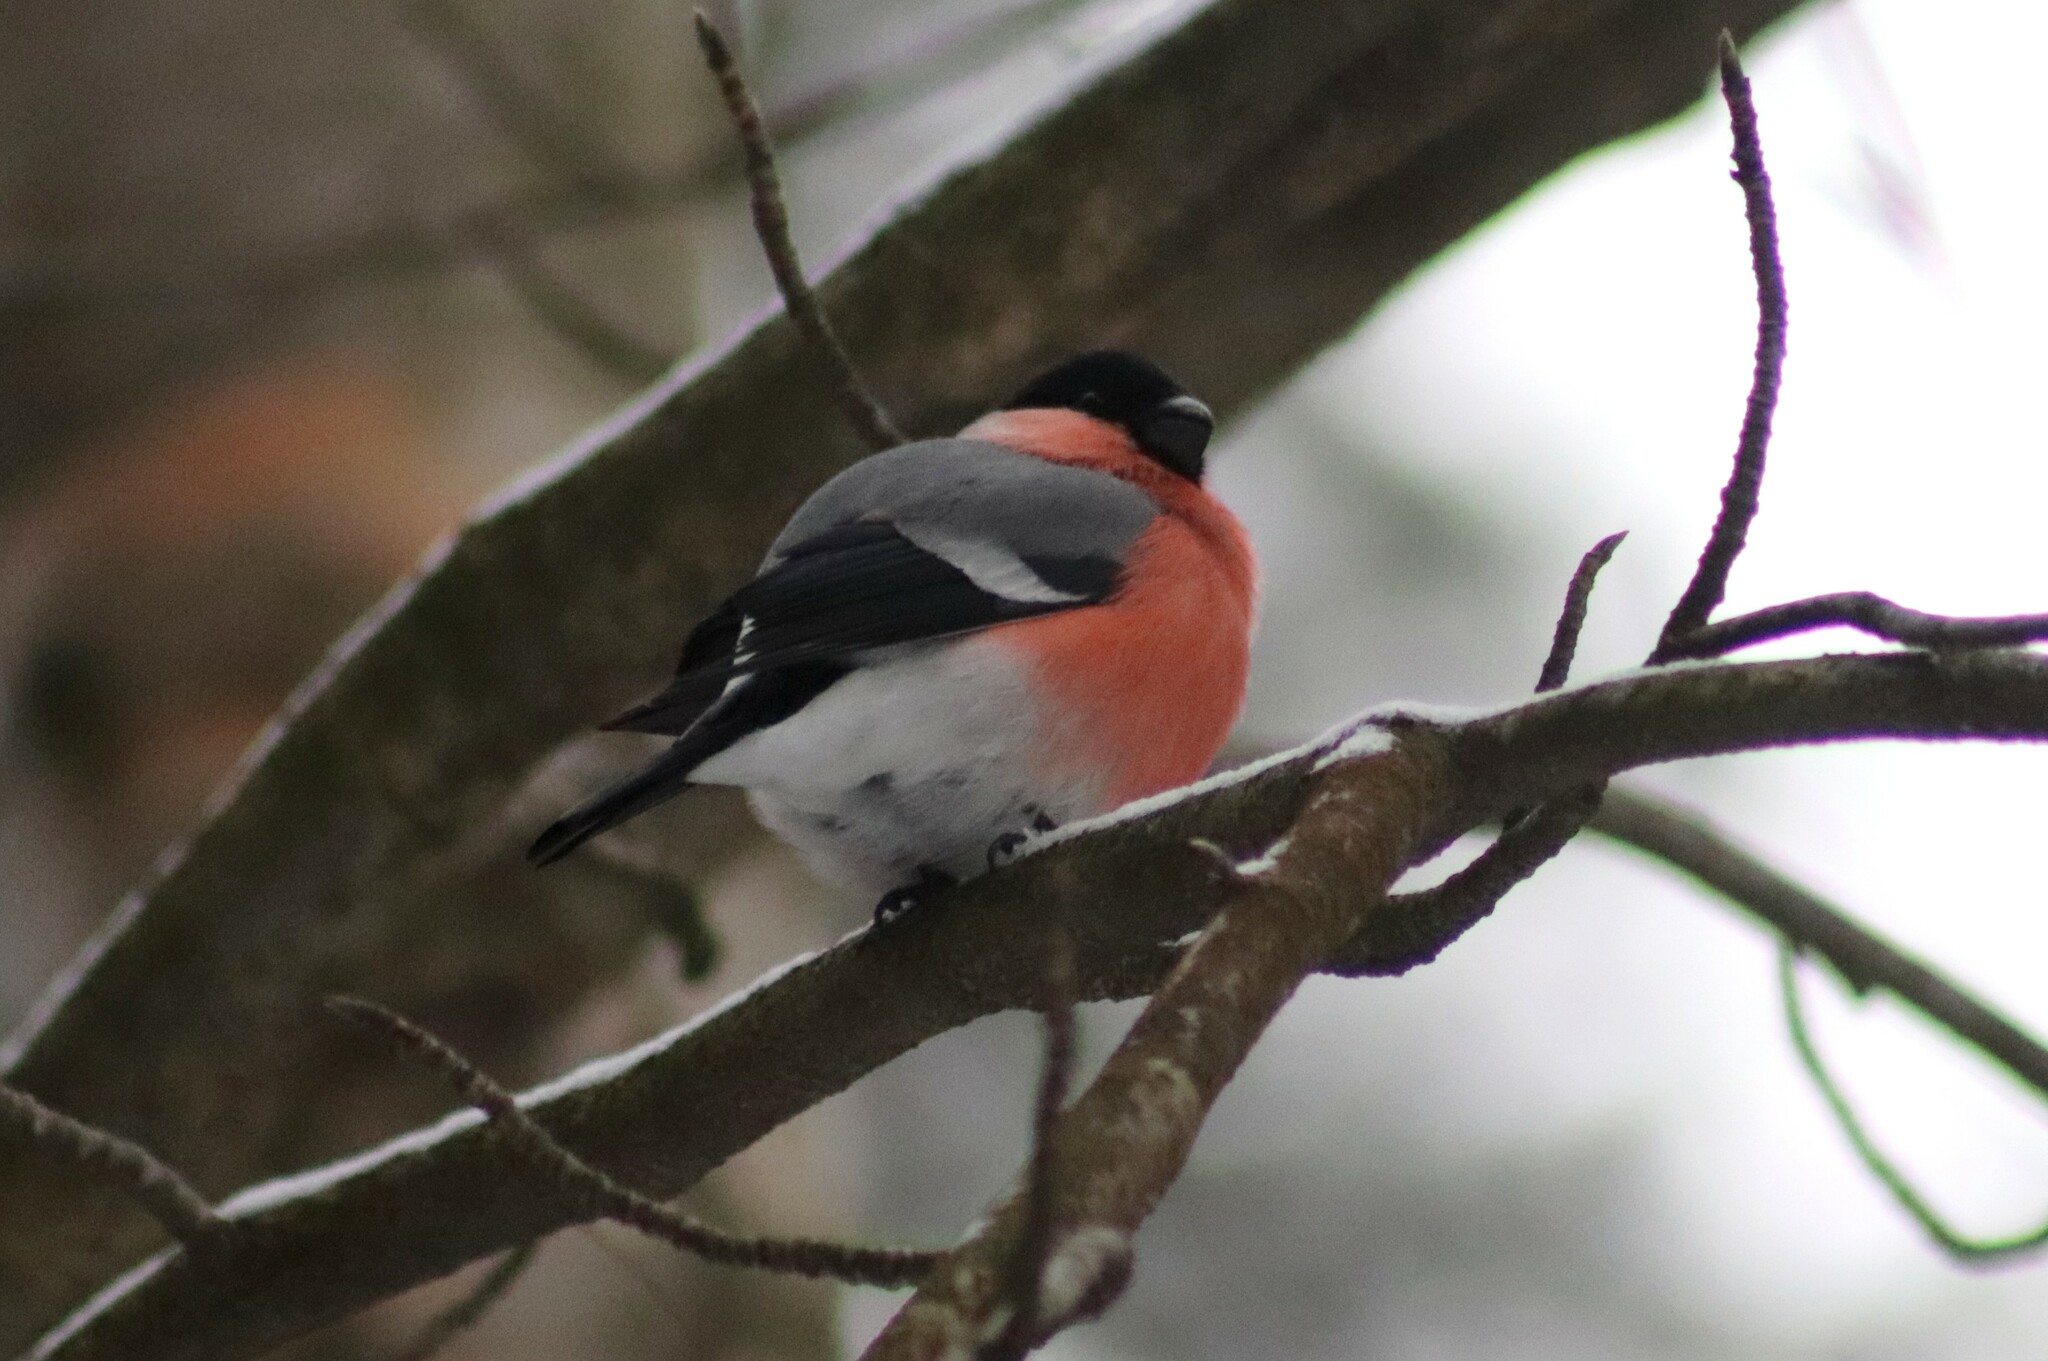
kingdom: Animalia
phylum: Chordata
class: Aves
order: Passeriformes
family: Fringillidae
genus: Pyrrhula
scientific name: Pyrrhula pyrrhula
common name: Eurasian bullfinch
